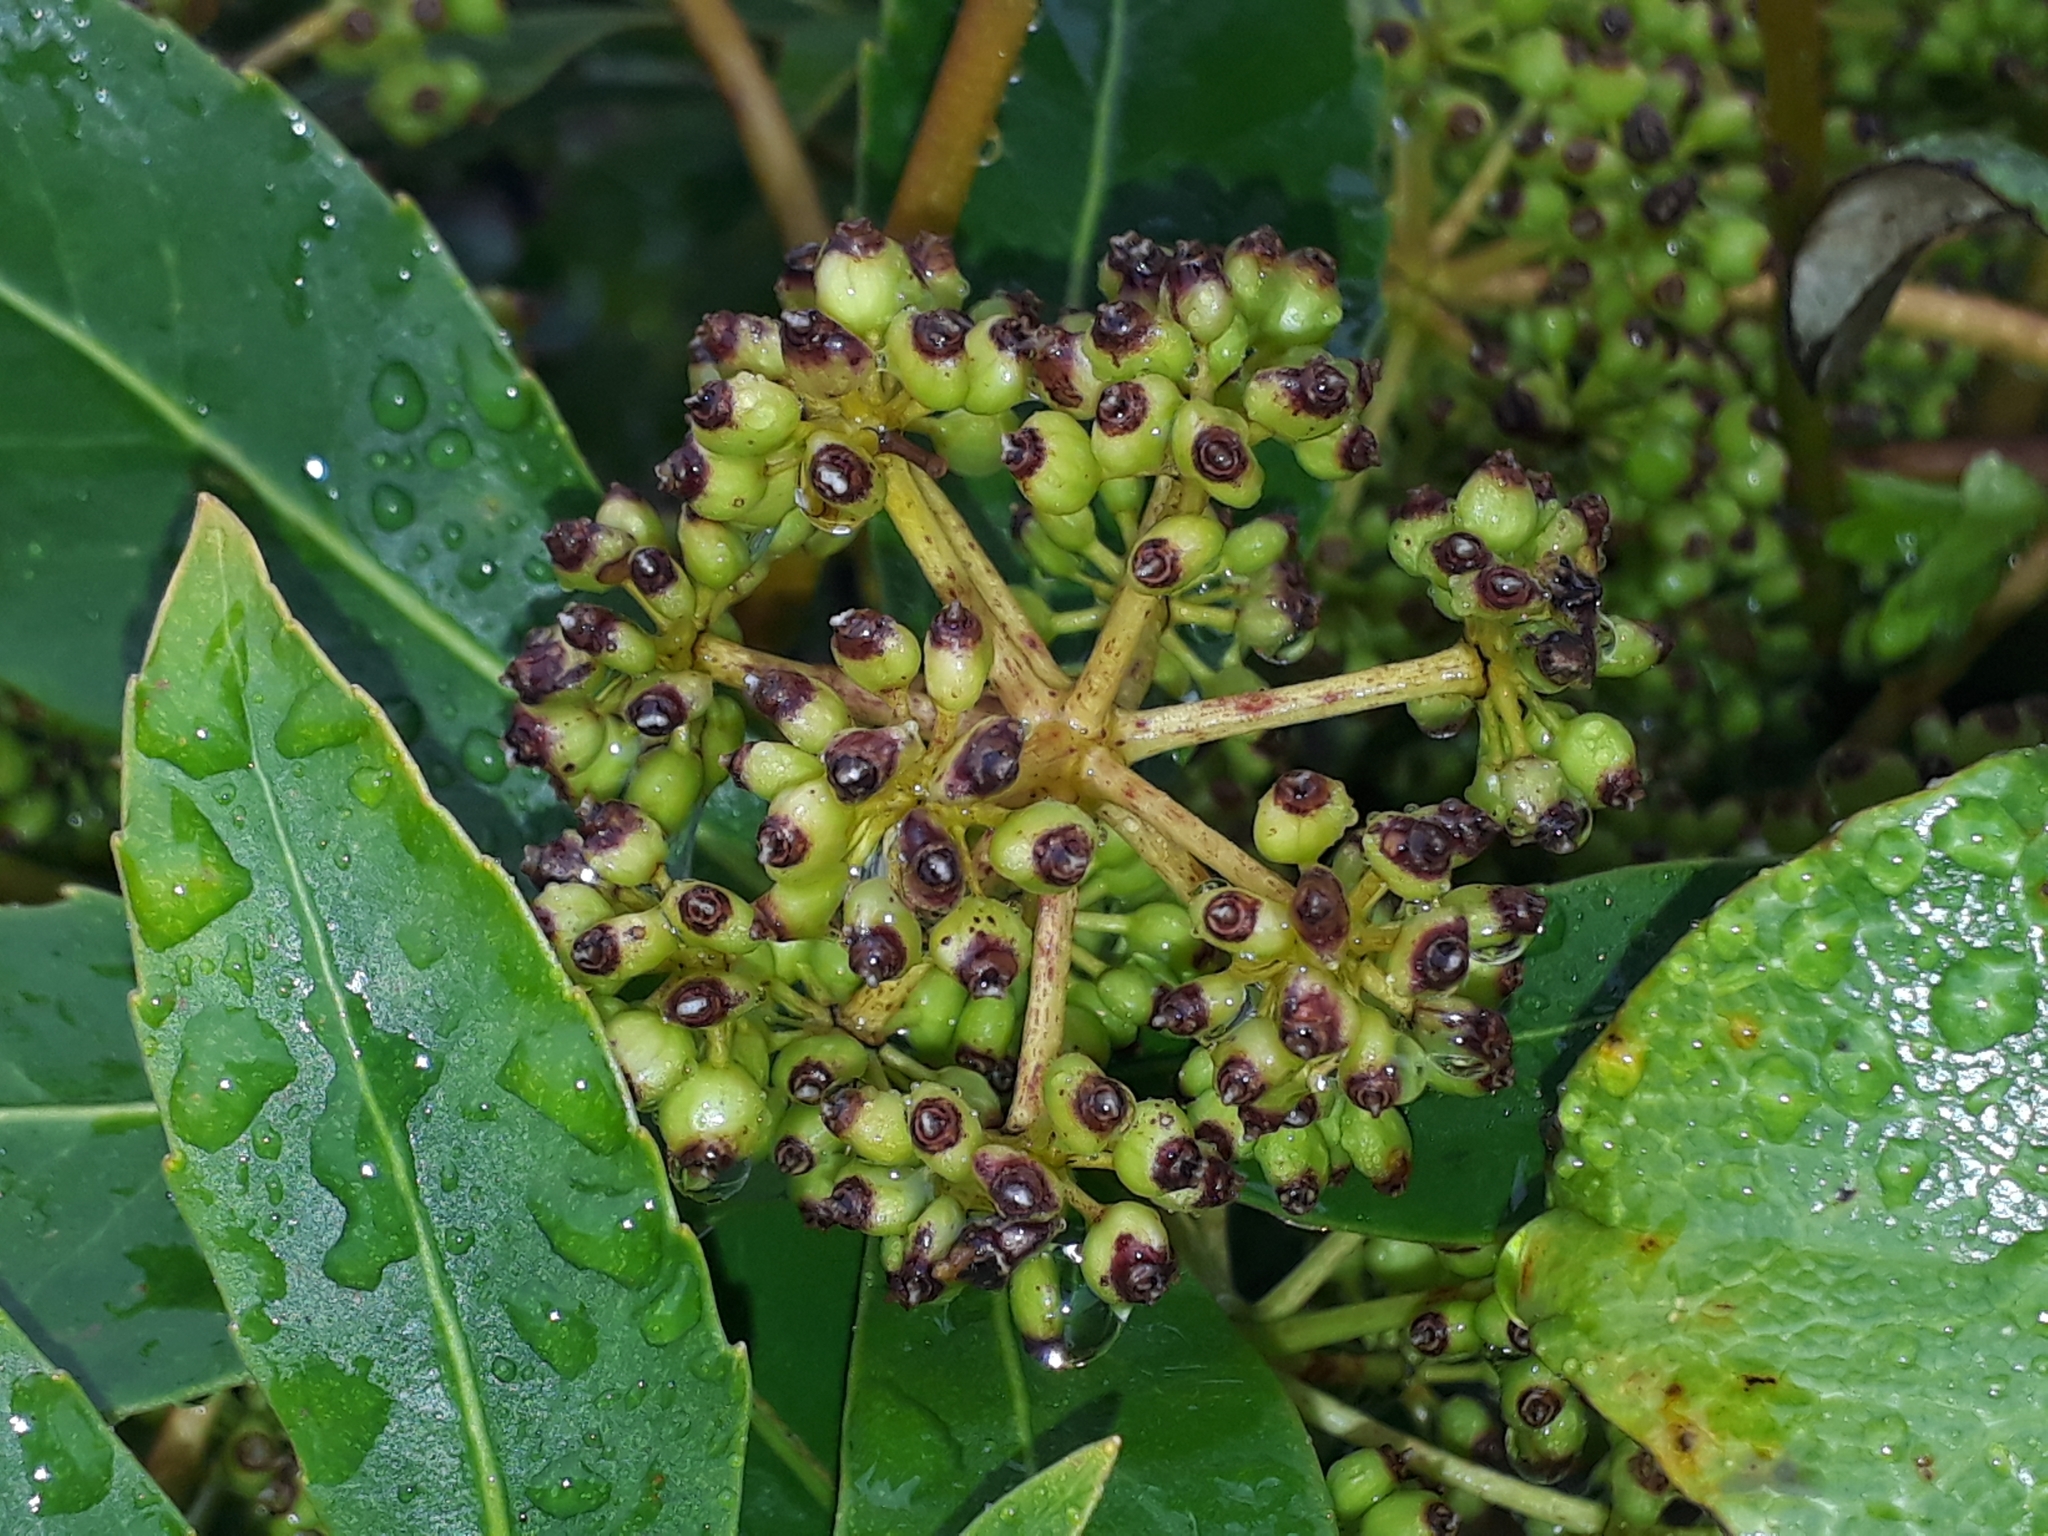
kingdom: Plantae
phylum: Tracheophyta
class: Magnoliopsida
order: Apiales
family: Araliaceae
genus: Neopanax
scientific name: Neopanax colensoi
